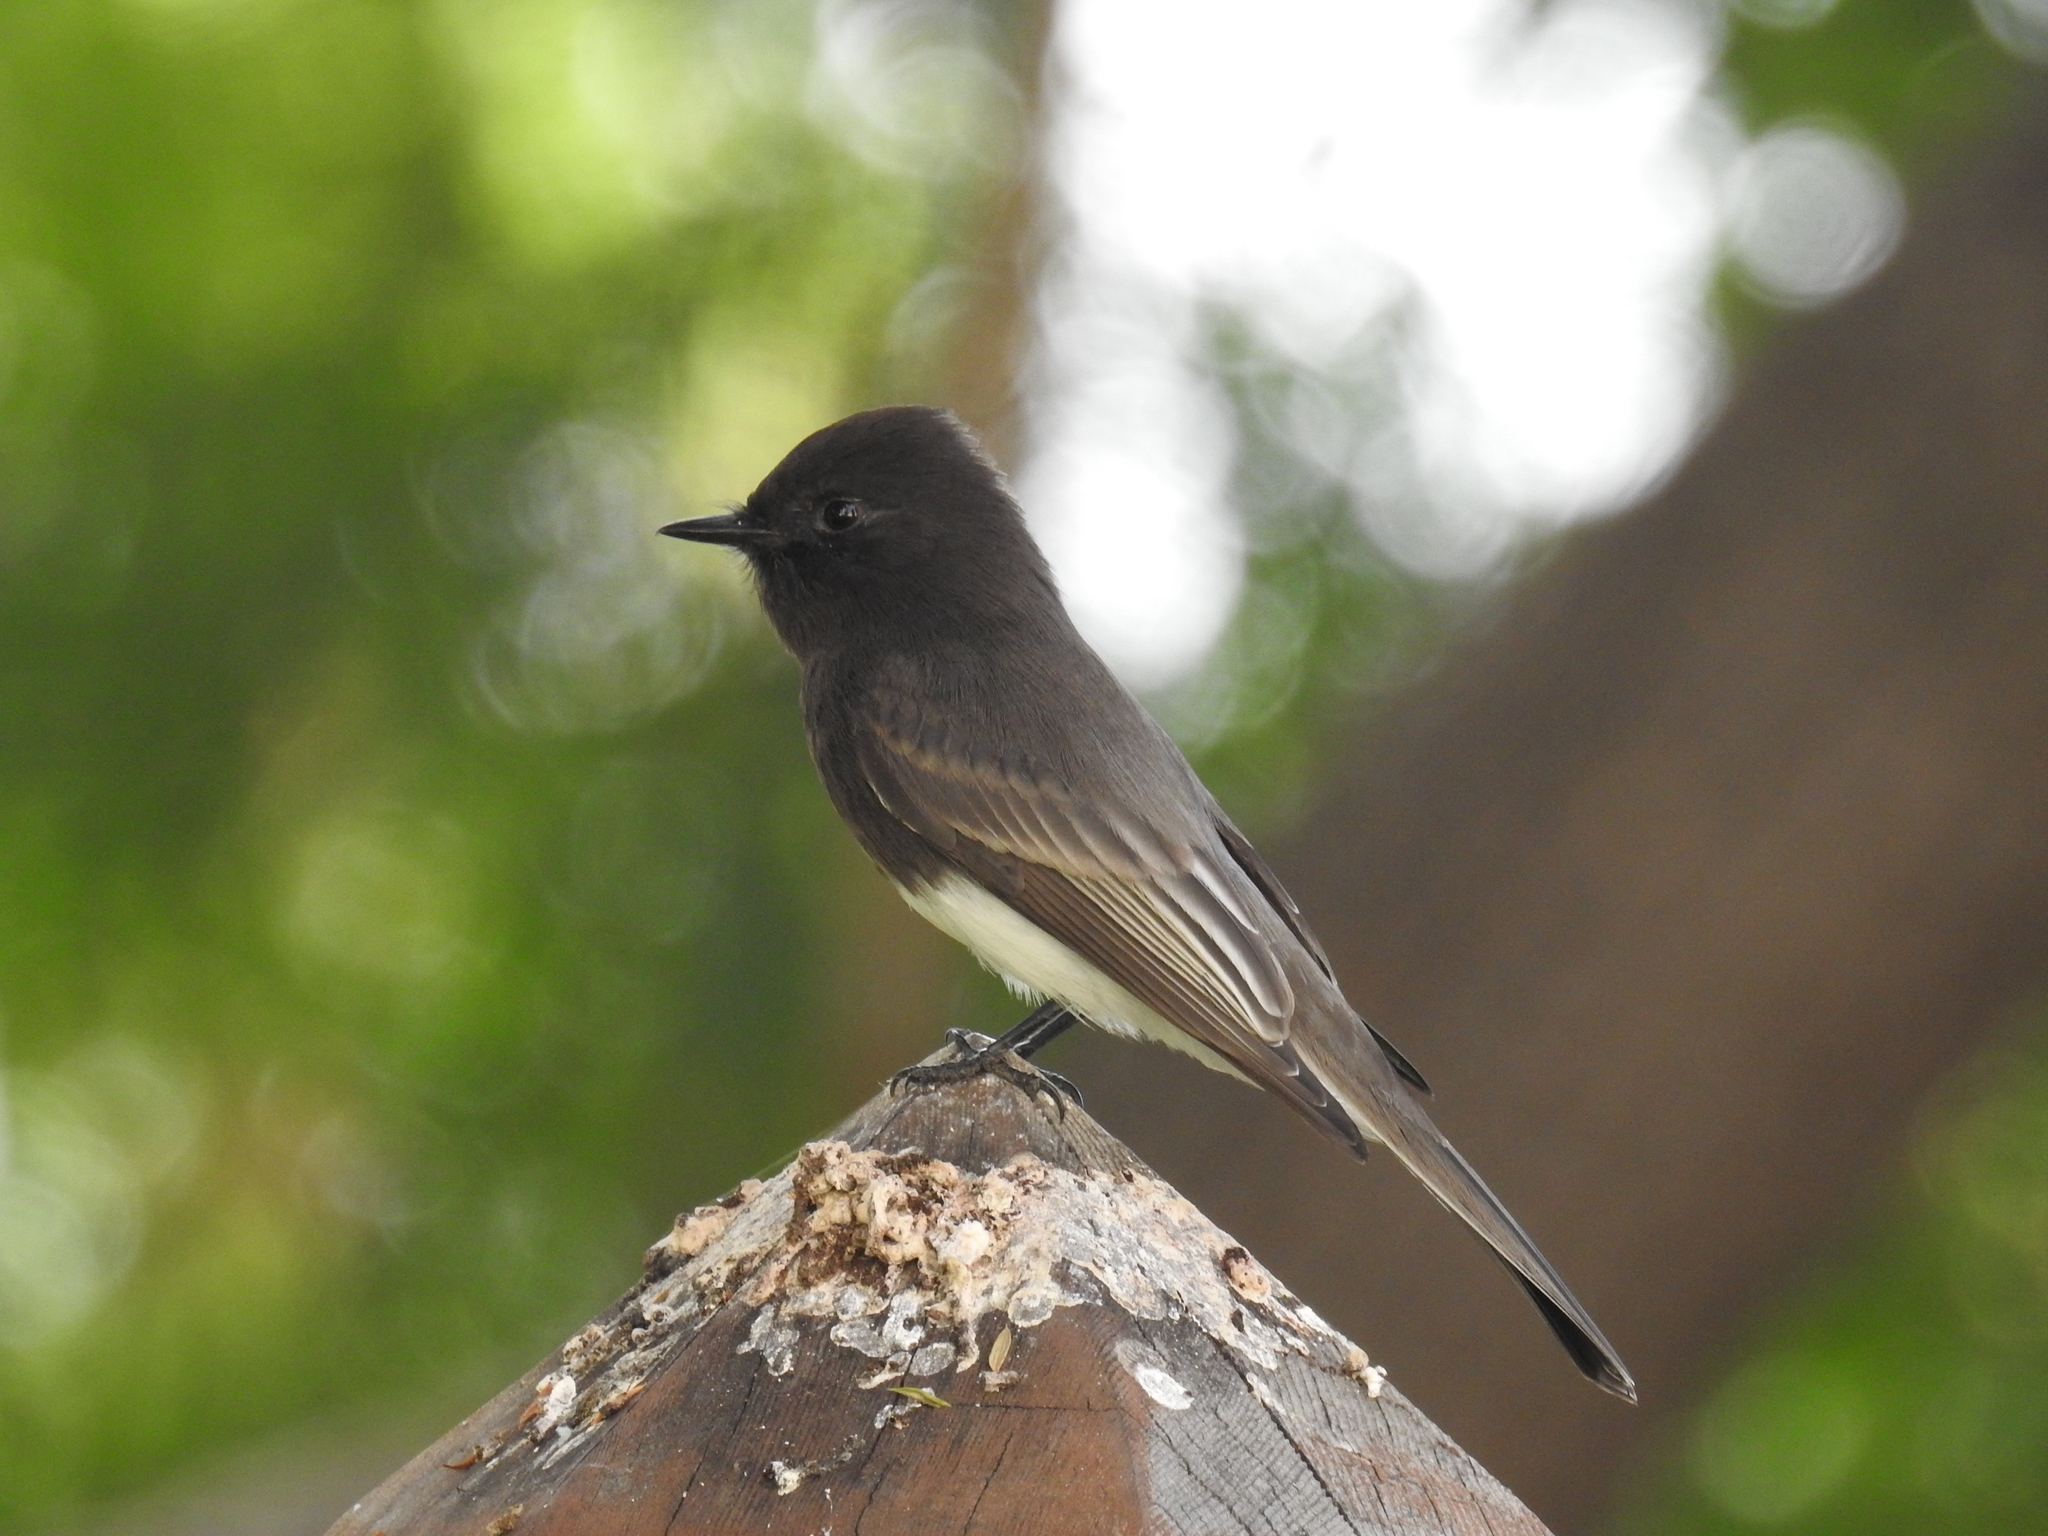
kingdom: Animalia
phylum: Chordata
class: Aves
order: Passeriformes
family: Tyrannidae
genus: Sayornis
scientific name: Sayornis nigricans
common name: Black phoebe
